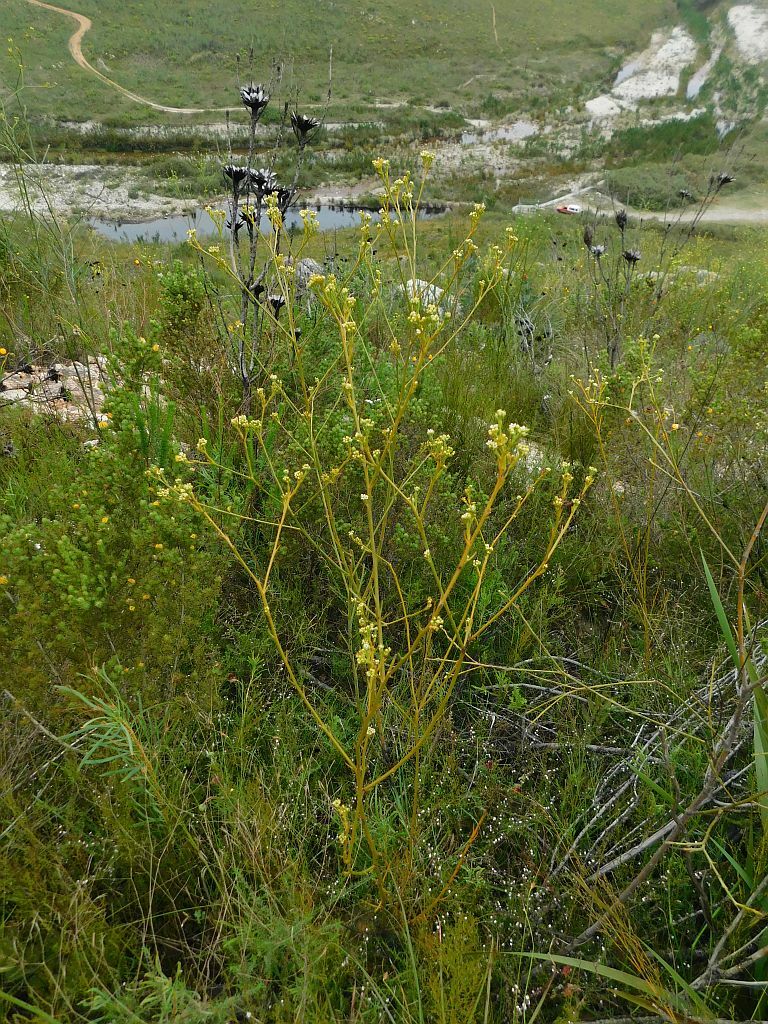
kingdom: Plantae
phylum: Tracheophyta
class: Magnoliopsida
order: Santalales
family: Thesiaceae
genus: Thesium
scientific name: Thesium strictum
